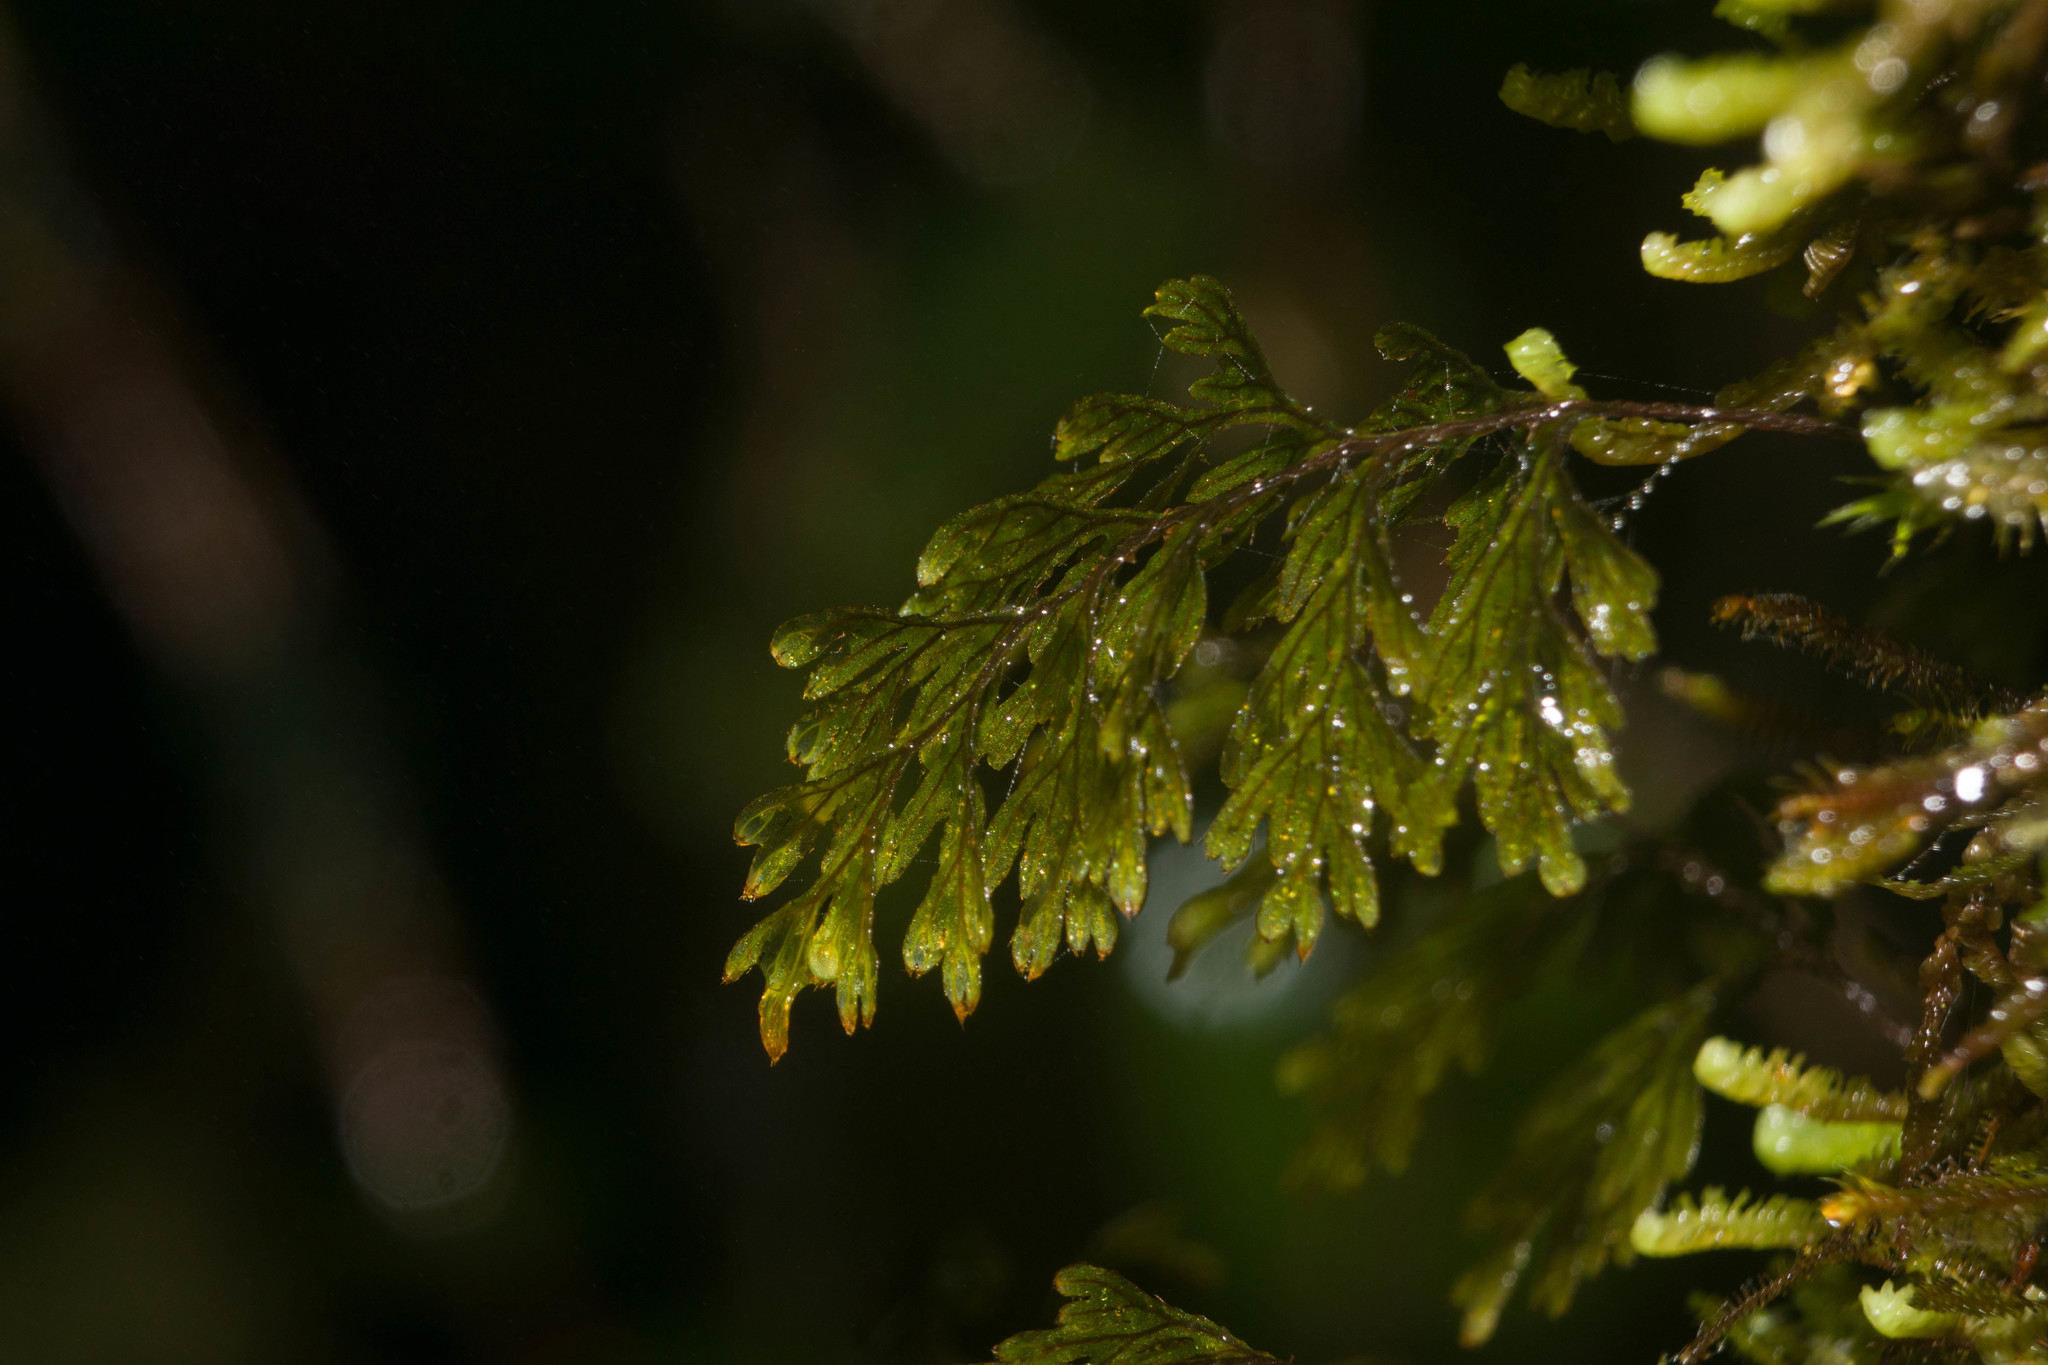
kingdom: Plantae
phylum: Tracheophyta
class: Polypodiopsida
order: Hymenophyllales
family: Hymenophyllaceae
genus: Hymenophyllum
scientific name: Hymenophyllum lanceolatum
